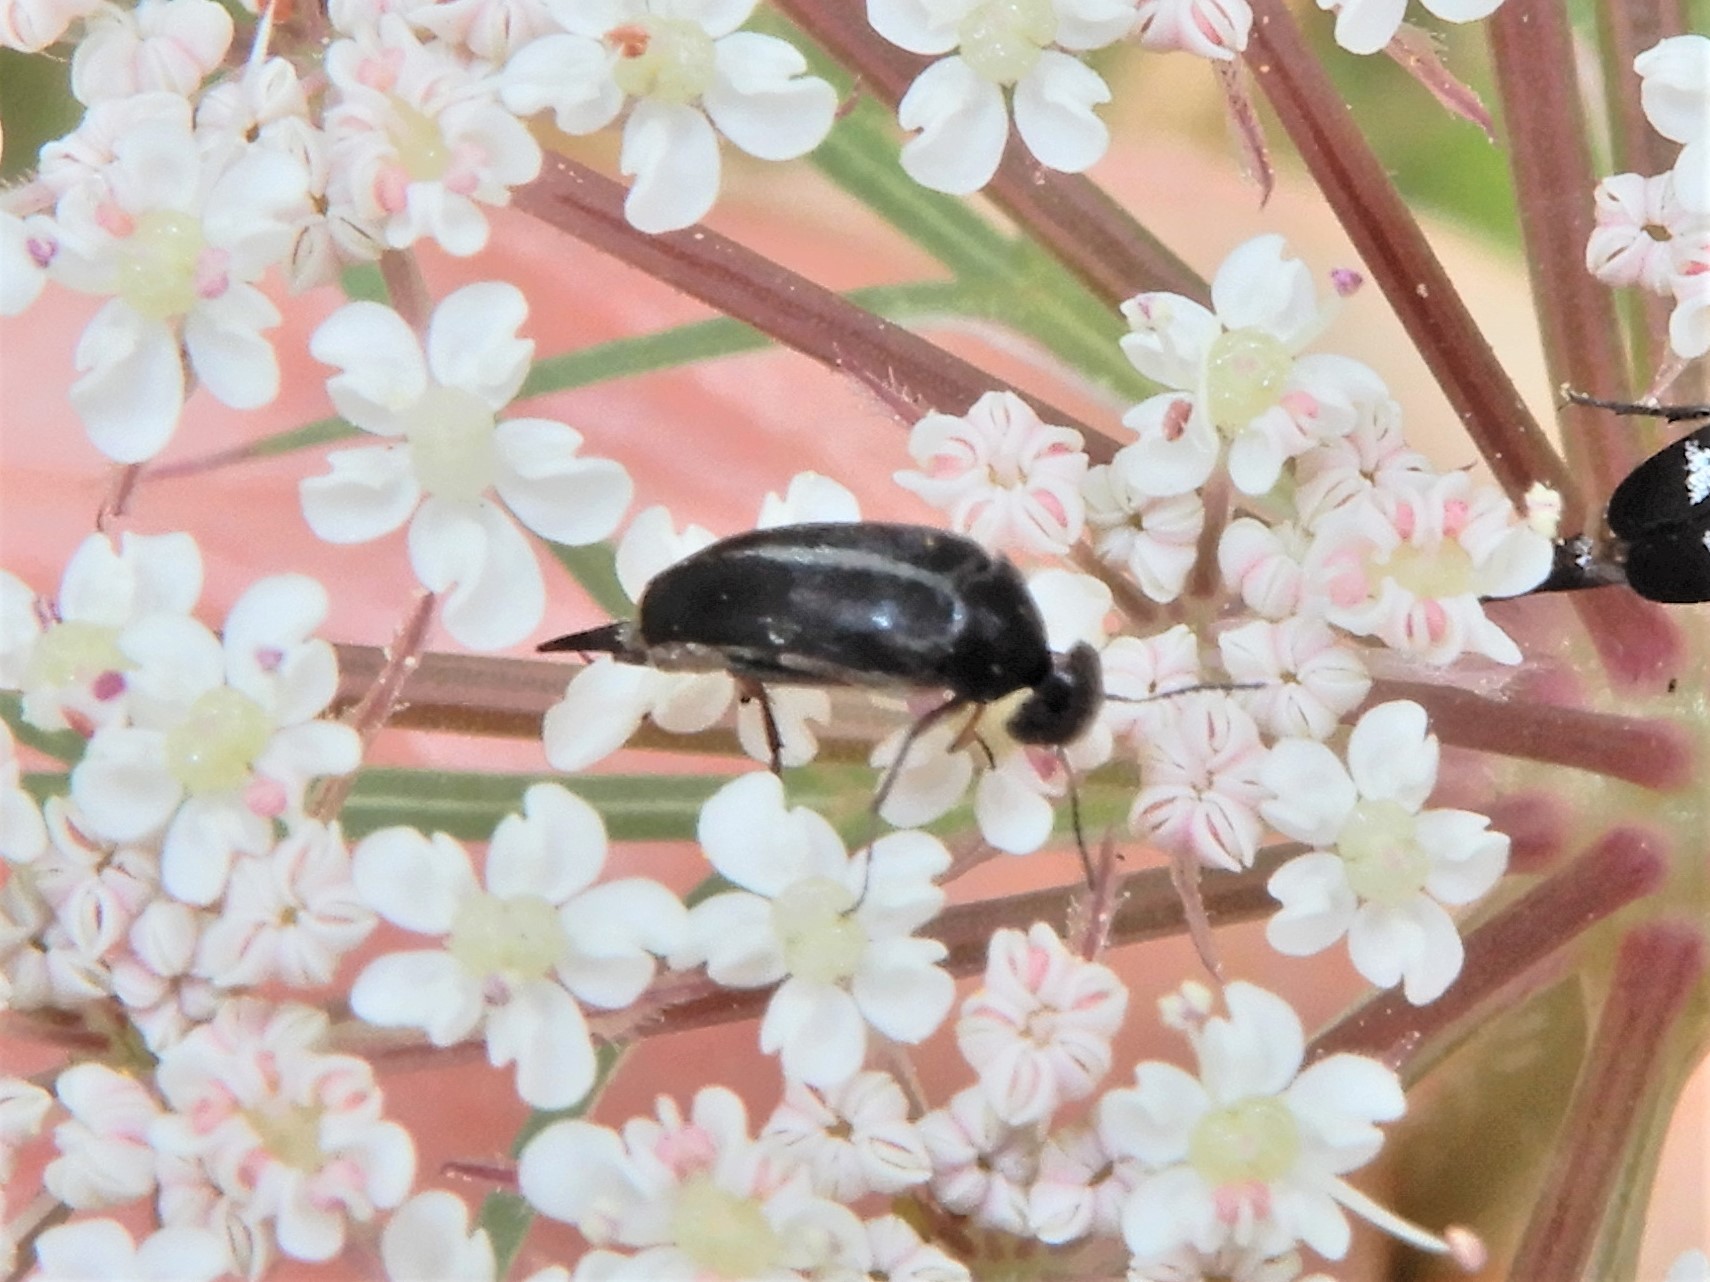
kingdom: Animalia
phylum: Arthropoda
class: Insecta
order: Coleoptera
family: Mordellidae
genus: Stenomordellaria
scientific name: Stenomordellaria neglecta
